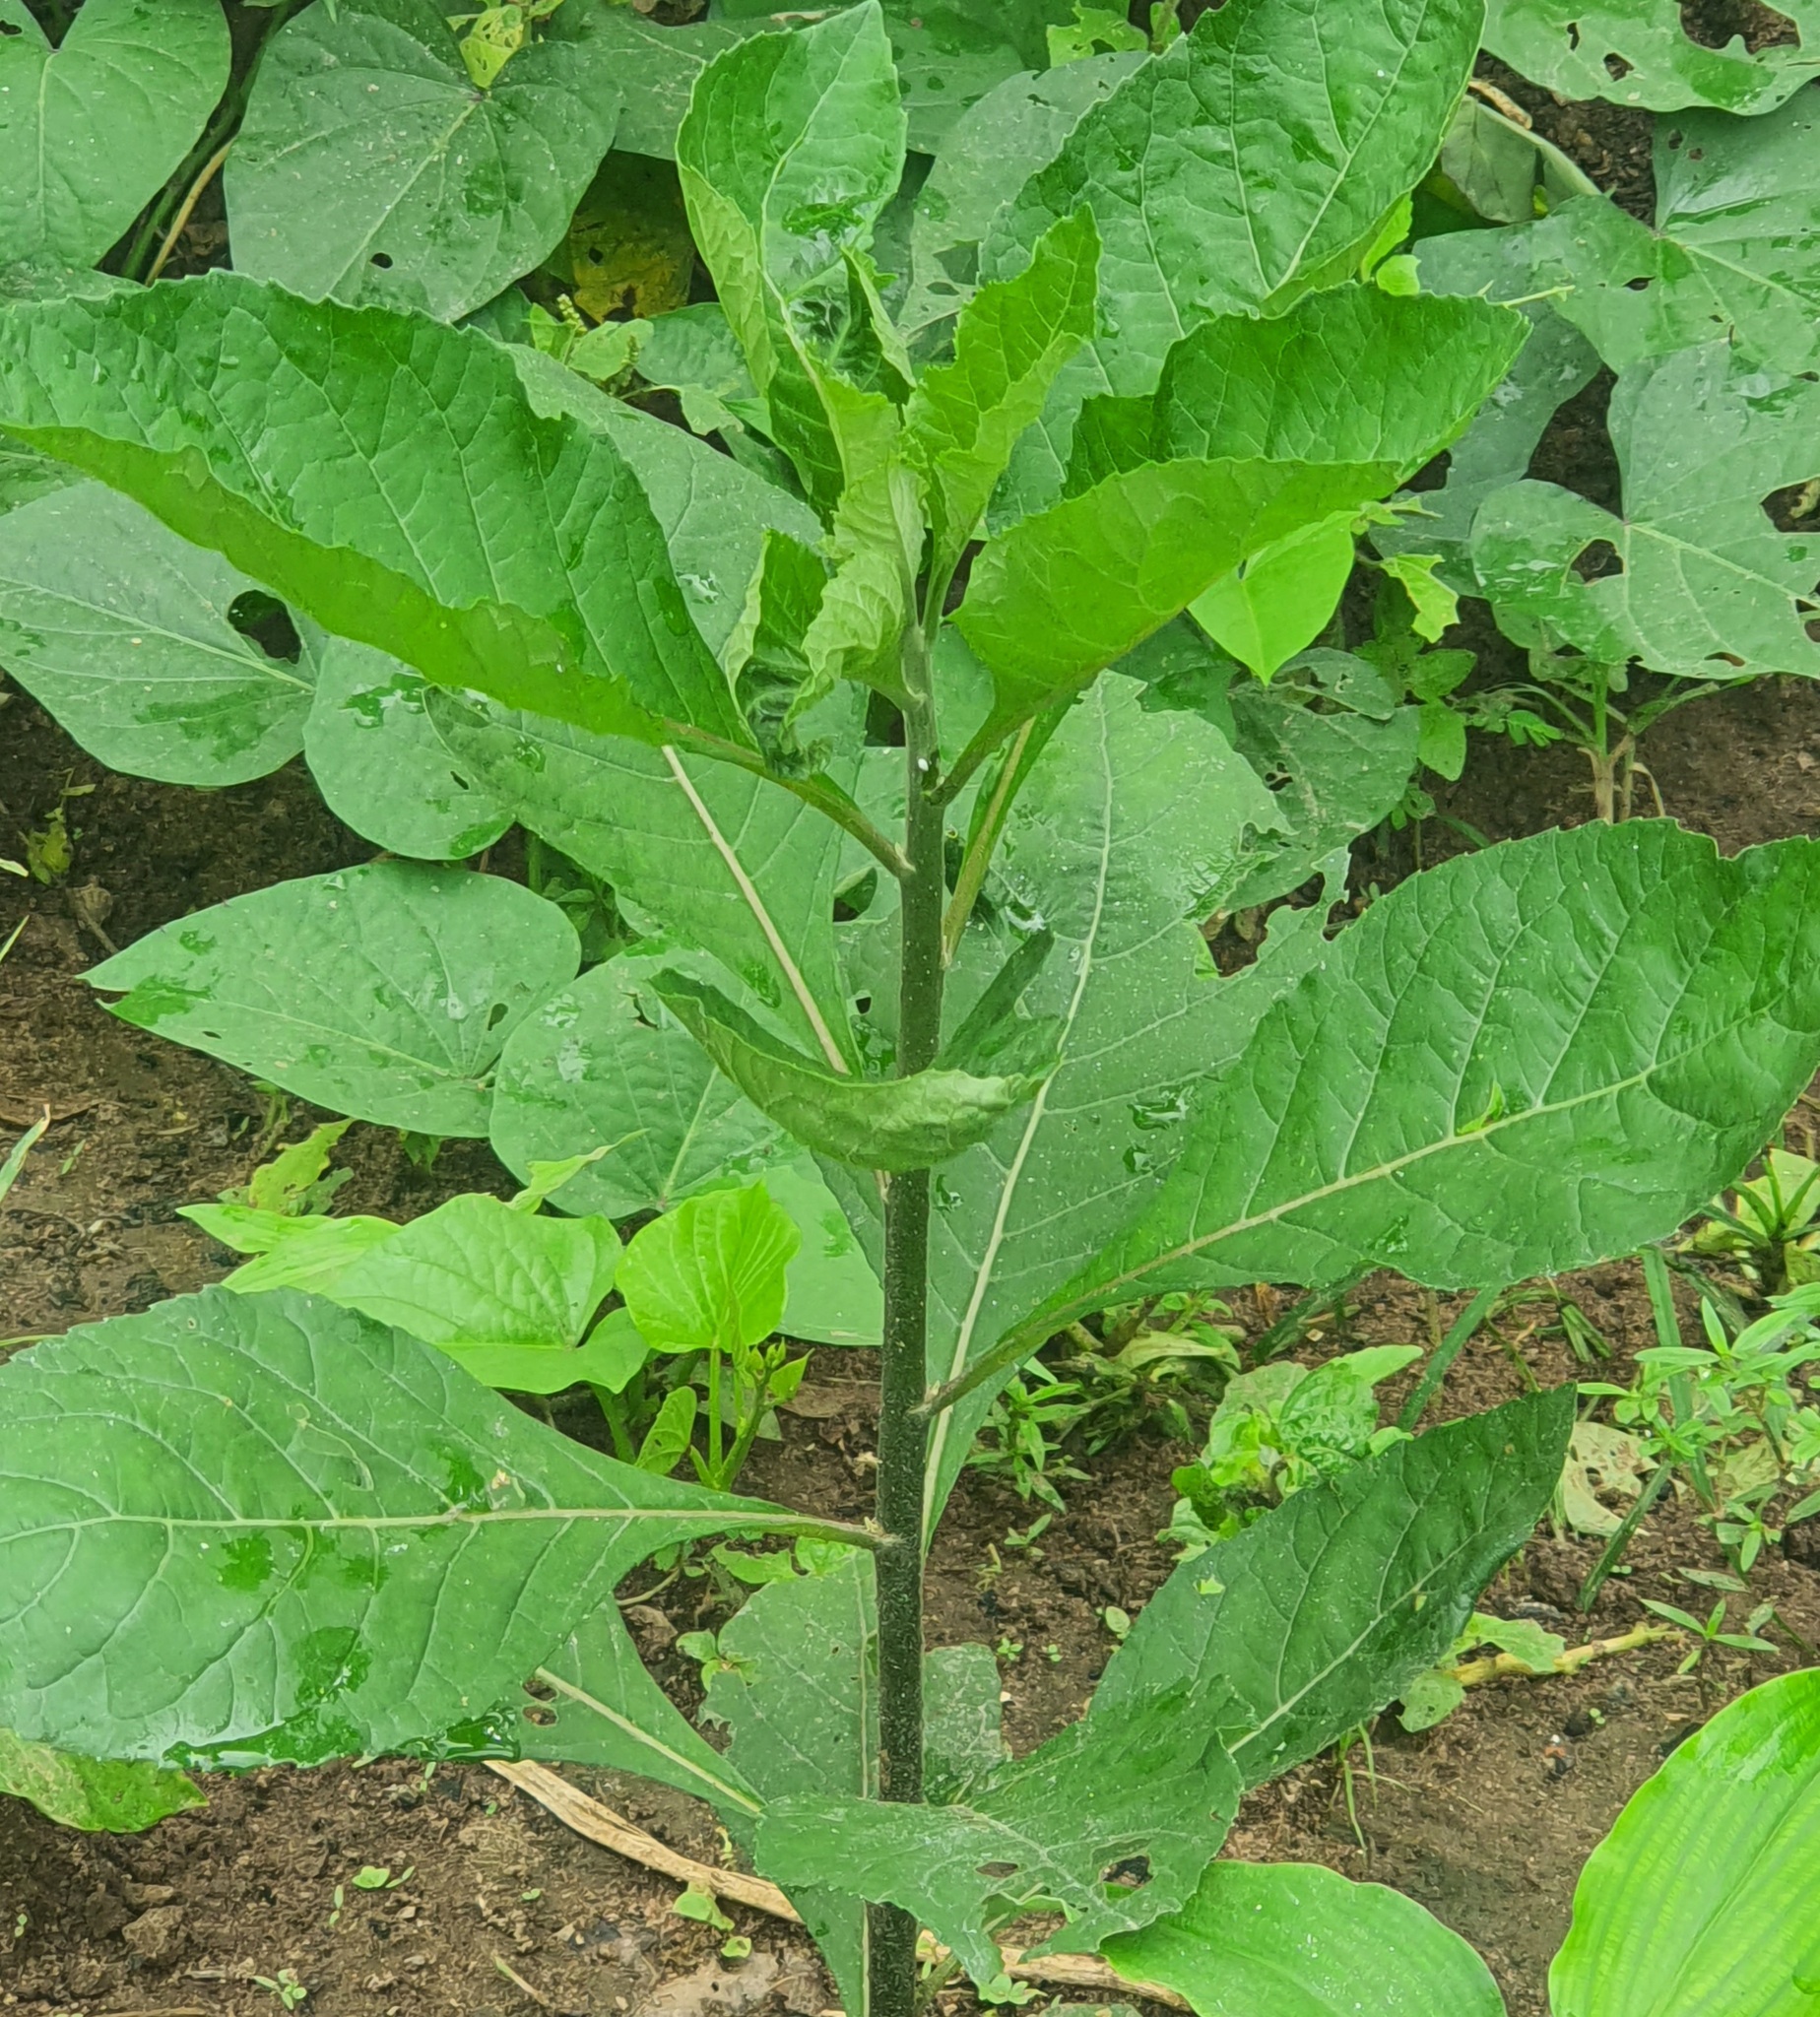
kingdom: Plantae
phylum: Tracheophyta
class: Magnoliopsida
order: Ericales
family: Primulaceae
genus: Embelia
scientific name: Embelia ruminata
